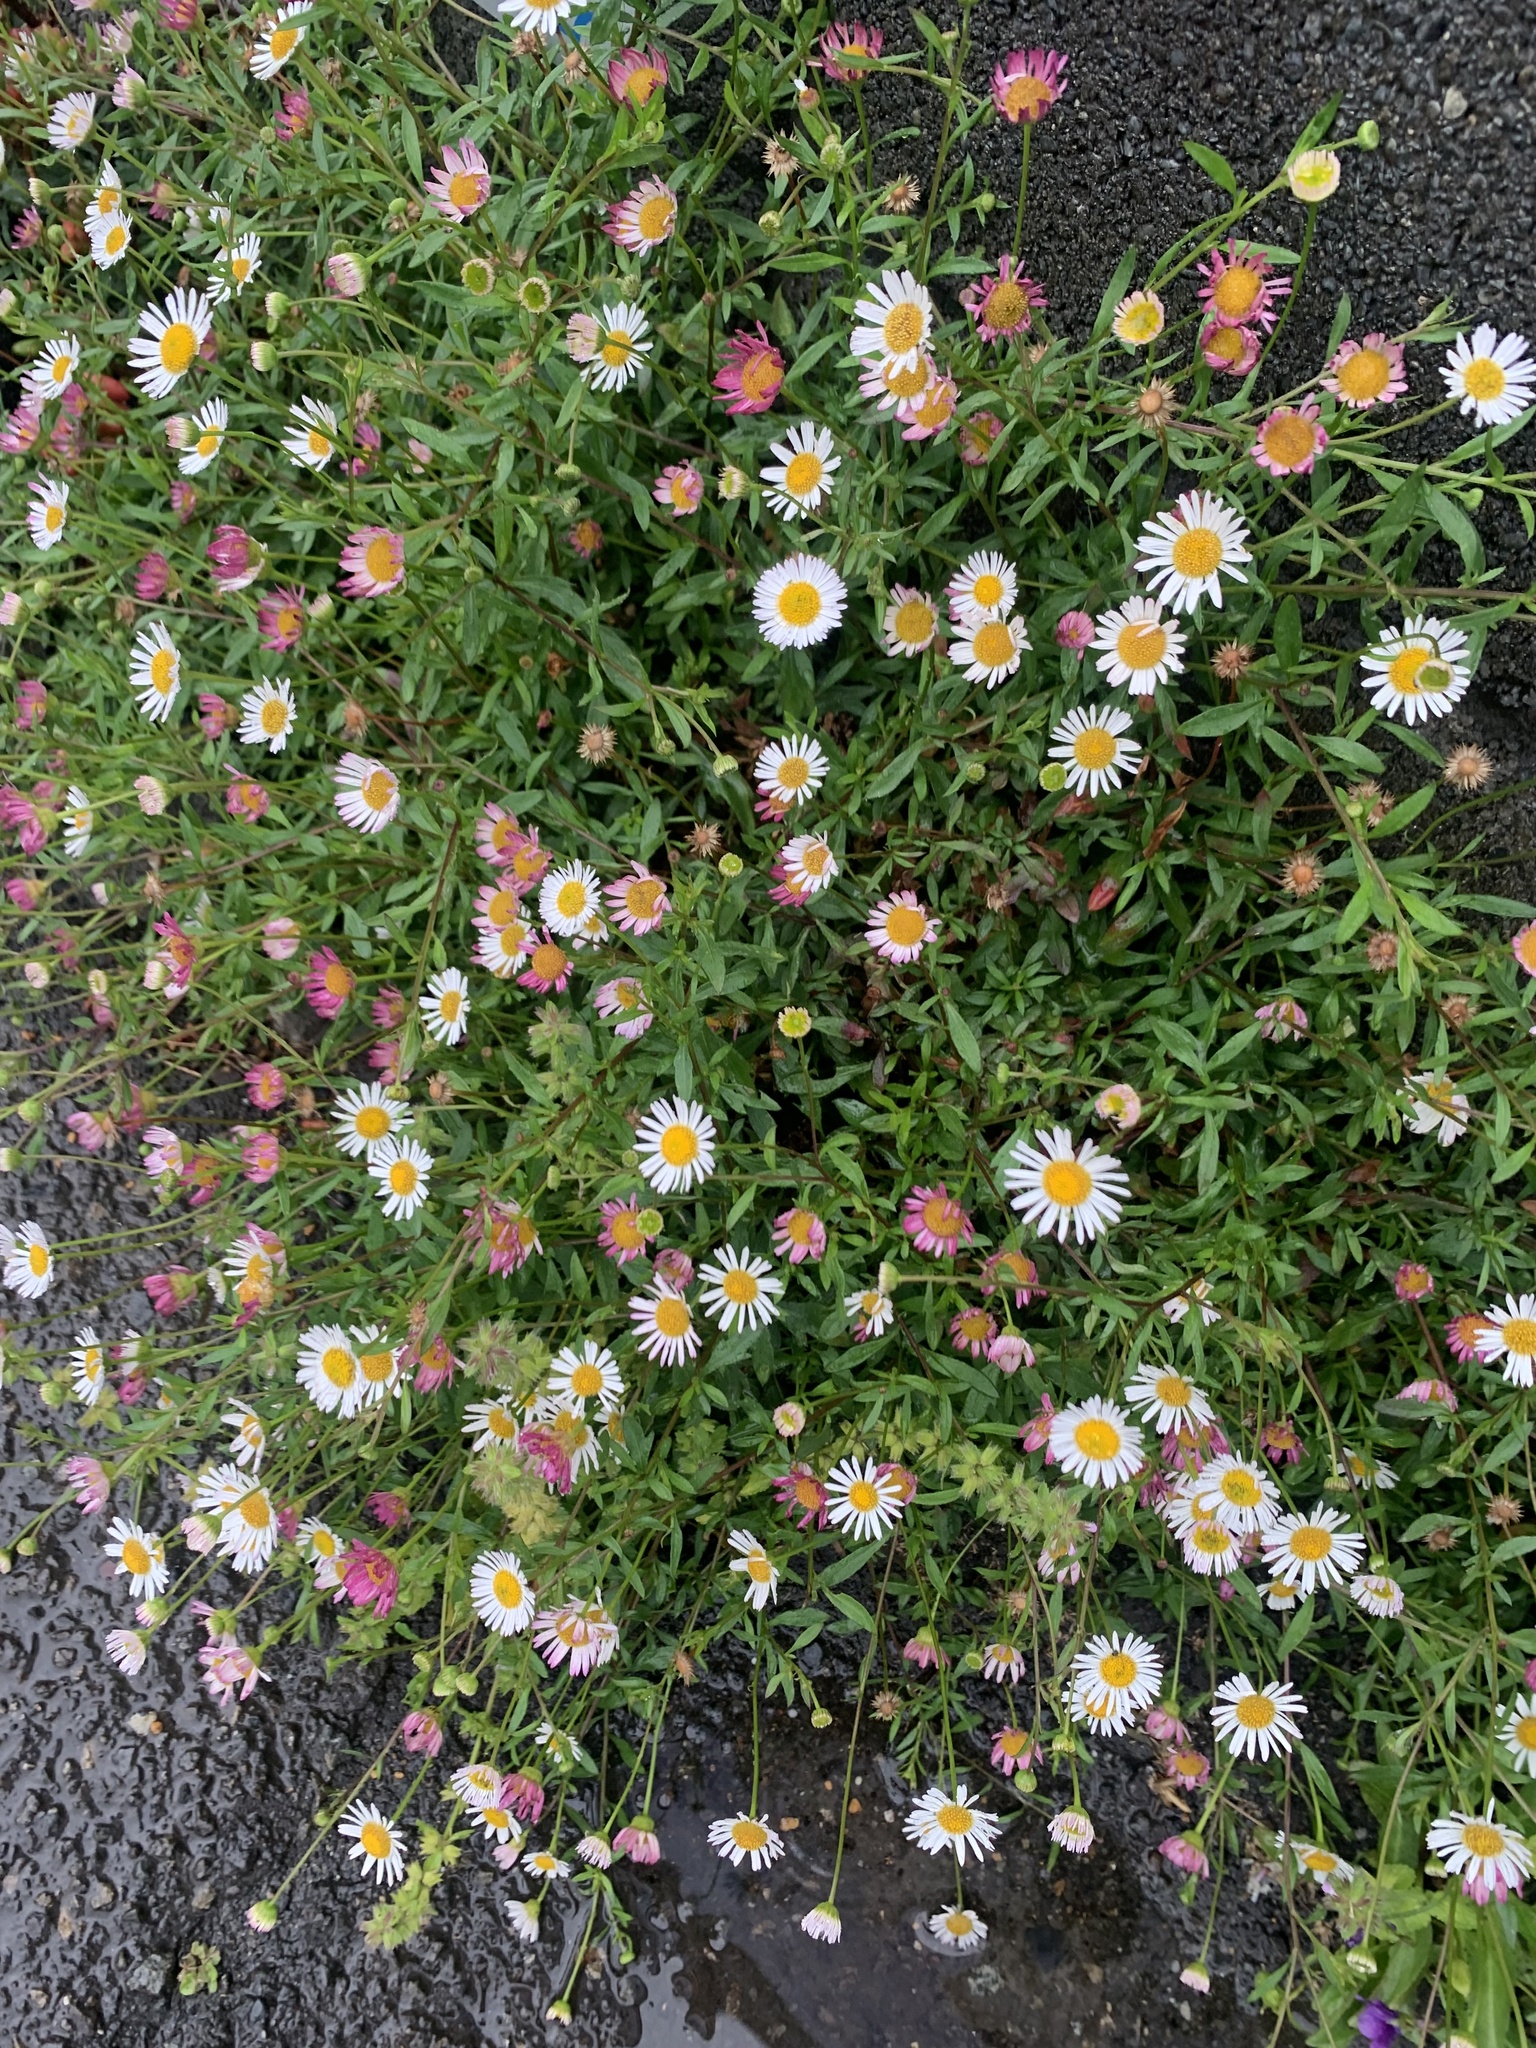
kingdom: Plantae
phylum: Tracheophyta
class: Magnoliopsida
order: Asterales
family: Asteraceae
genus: Erigeron
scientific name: Erigeron karvinskianus
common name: Mexican fleabane
